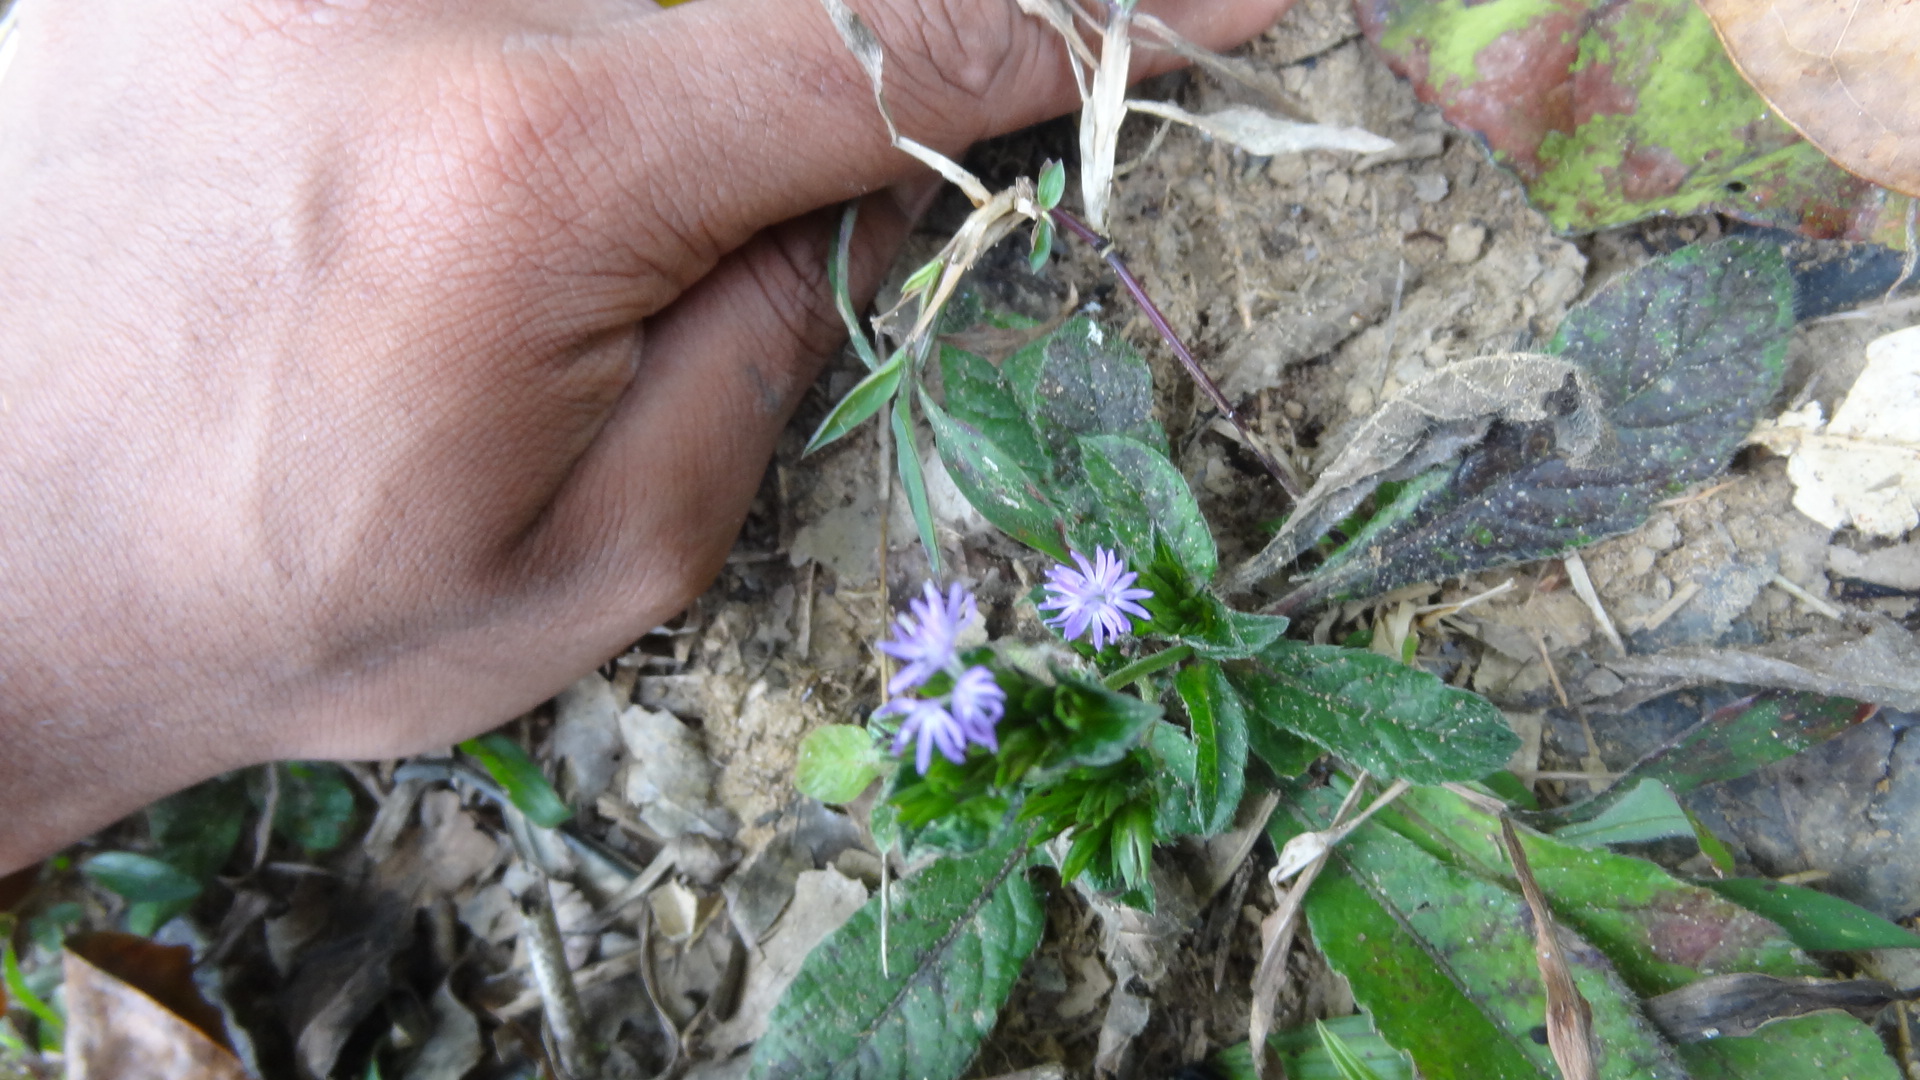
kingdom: Plantae
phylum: Tracheophyta
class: Magnoliopsida
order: Asterales
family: Asteraceae
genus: Elephantopus
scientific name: Elephantopus scaber
